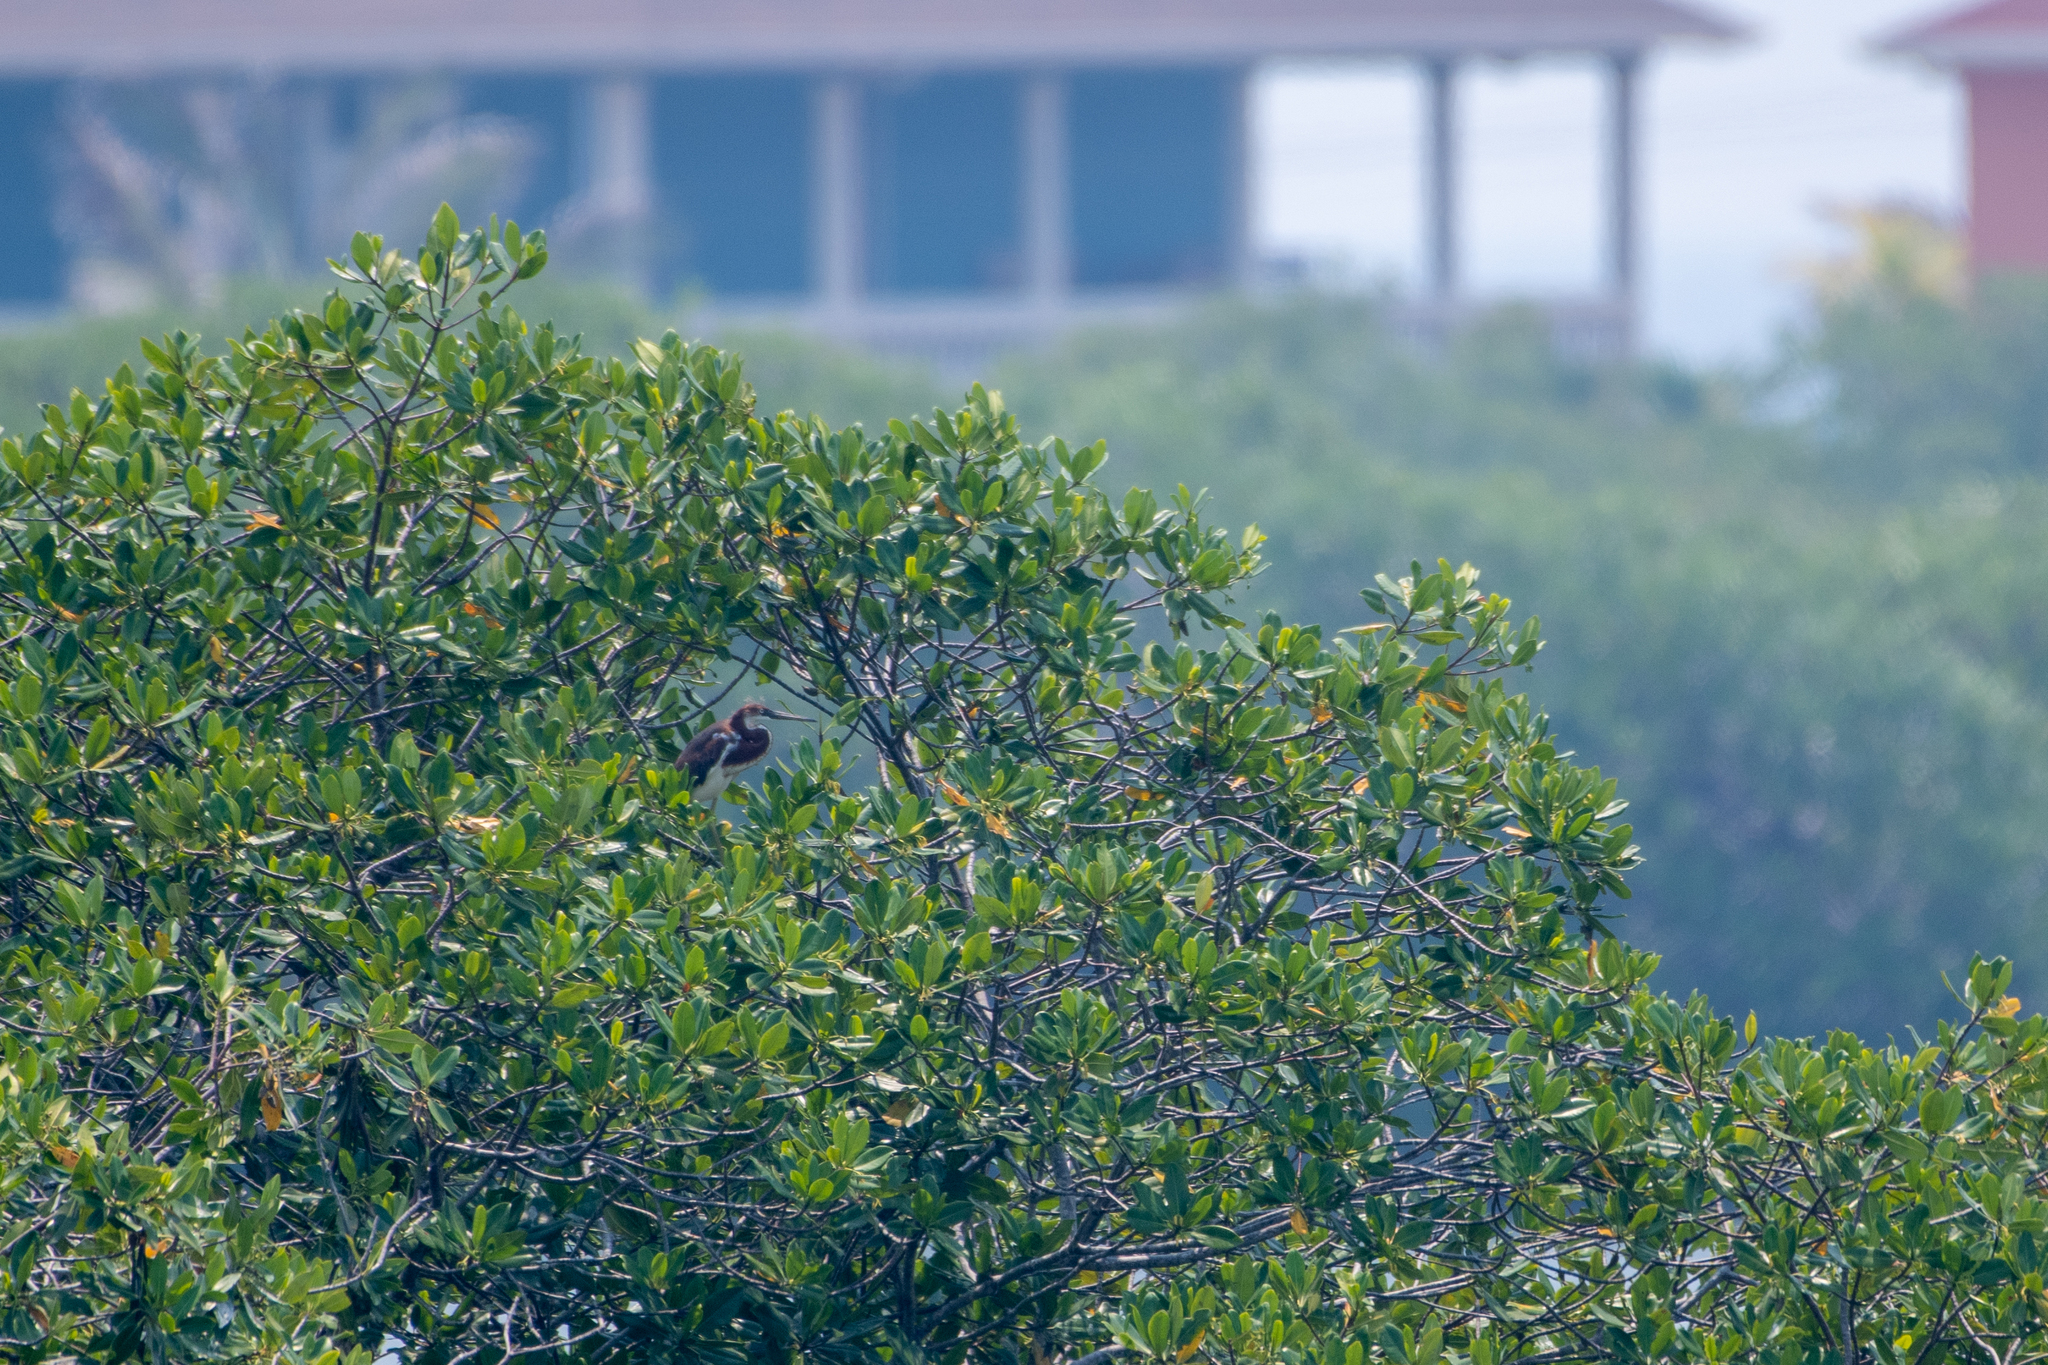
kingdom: Animalia
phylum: Chordata
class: Aves
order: Pelecaniformes
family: Ardeidae
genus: Egretta
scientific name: Egretta tricolor
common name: Tricolored heron
